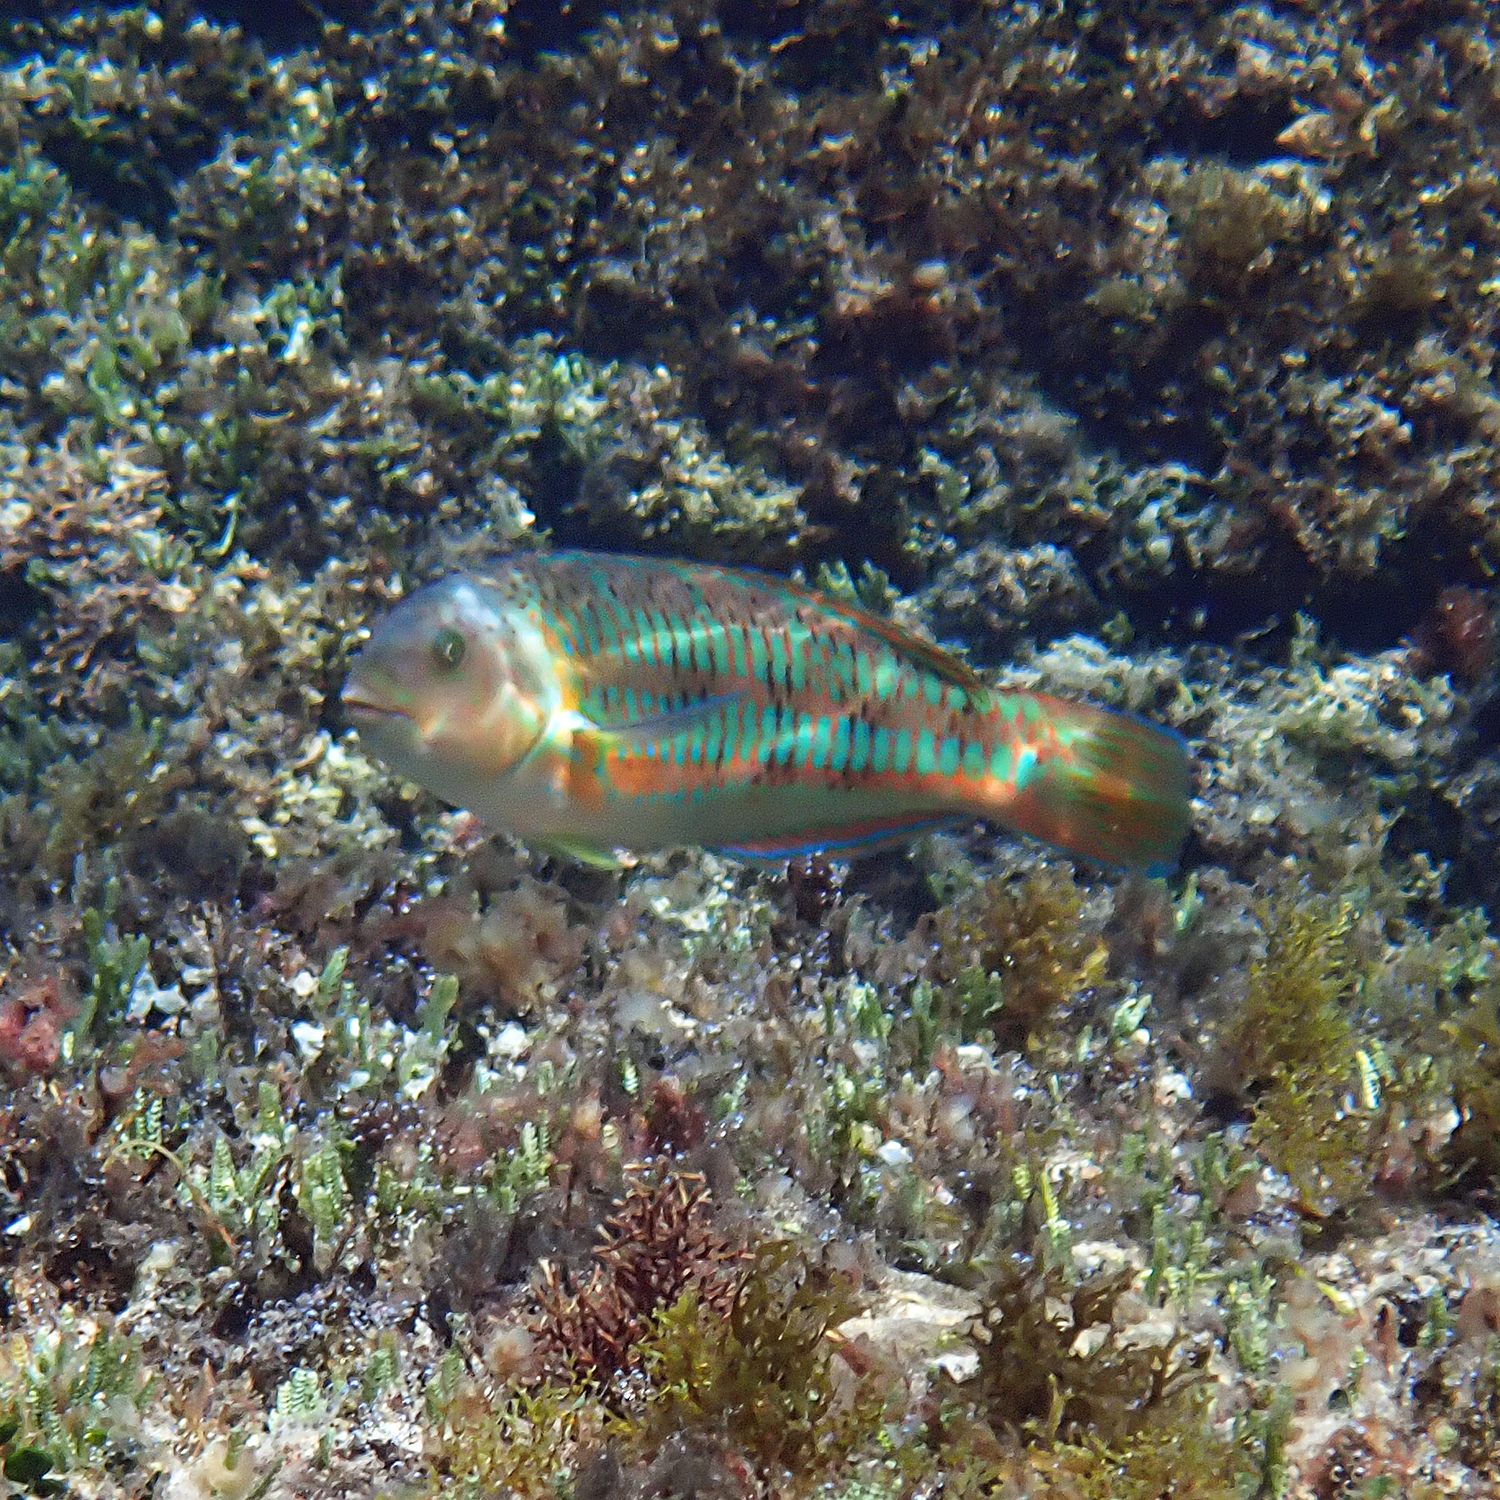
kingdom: Animalia
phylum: Chordata
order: Perciformes
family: Labridae
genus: Thalassoma
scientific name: Thalassoma trilobatum
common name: Christmas wrasse
